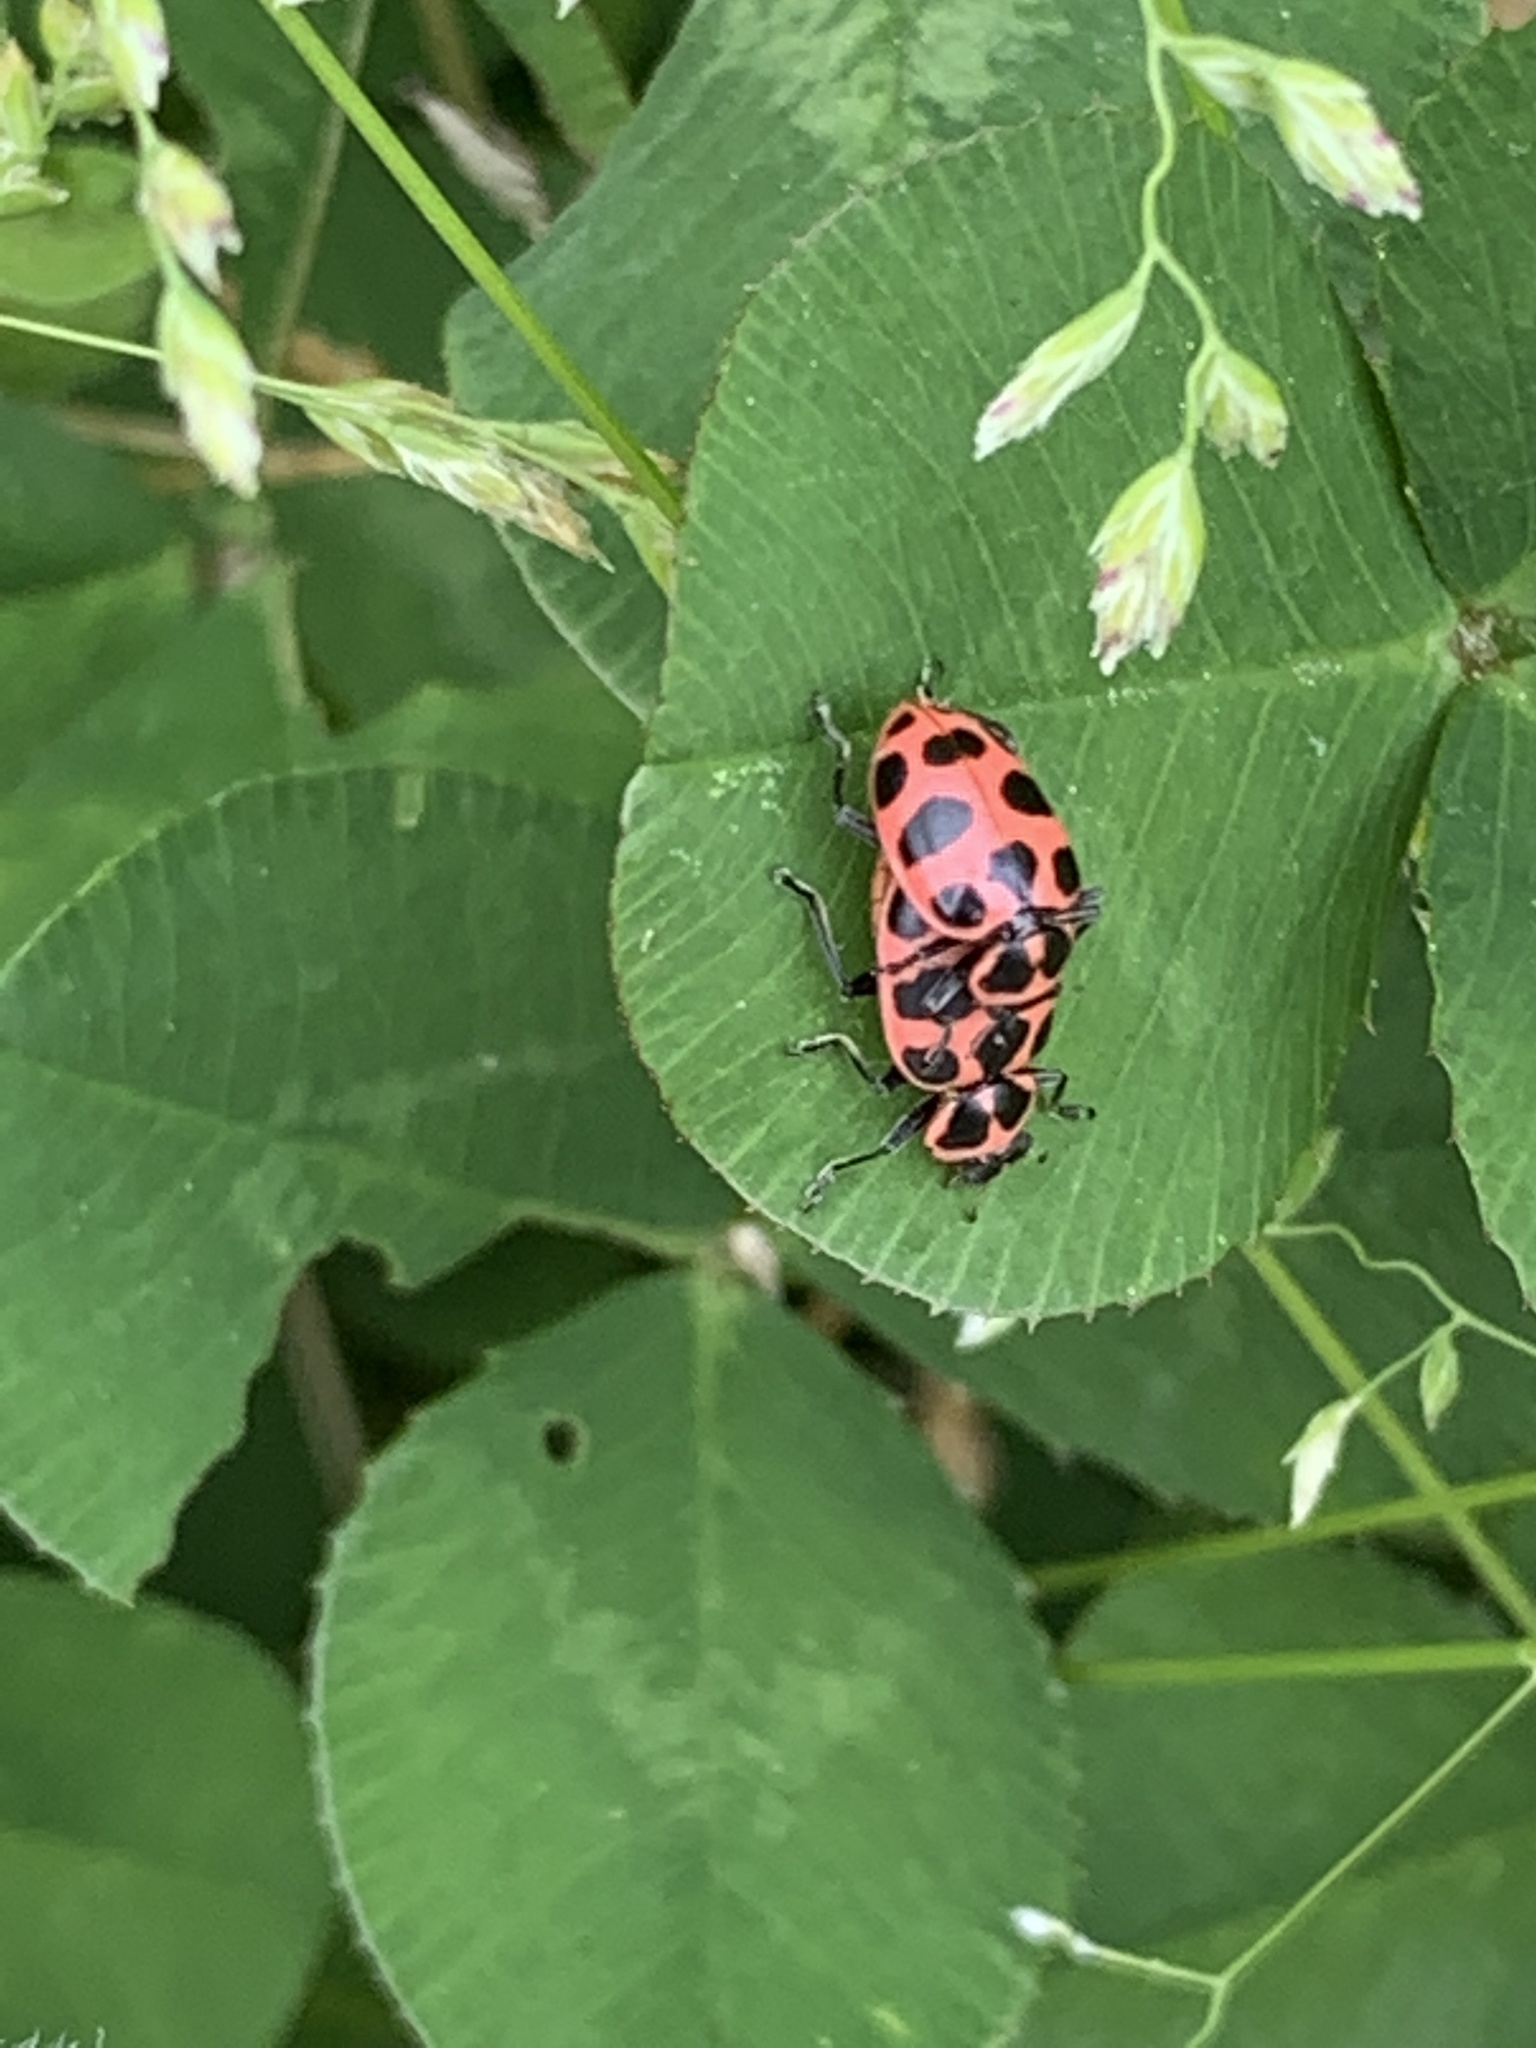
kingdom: Animalia
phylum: Arthropoda
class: Insecta
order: Coleoptera
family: Coccinellidae
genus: Coleomegilla
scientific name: Coleomegilla maculata
